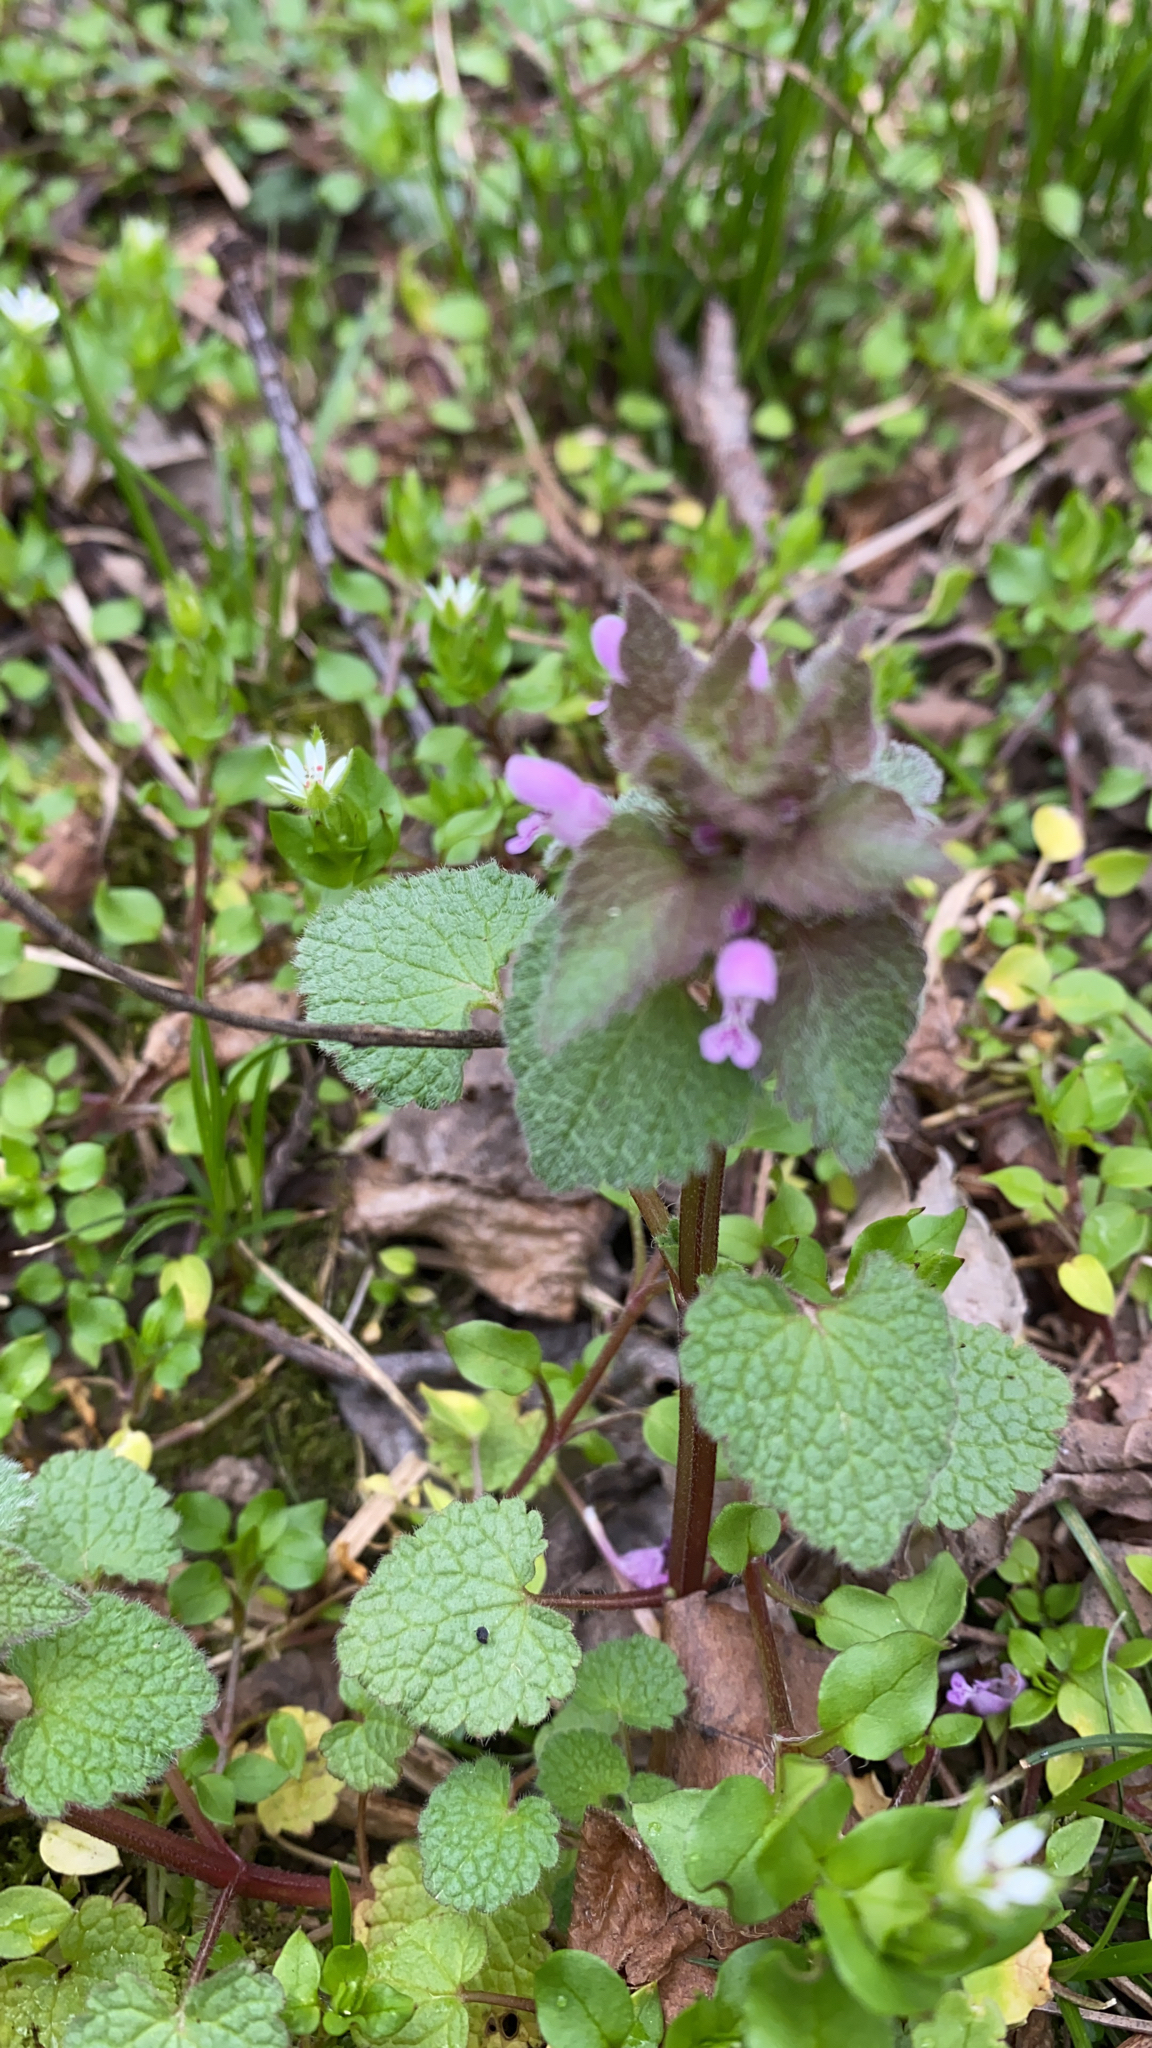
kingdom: Plantae
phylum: Tracheophyta
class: Magnoliopsida
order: Lamiales
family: Lamiaceae
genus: Lamium
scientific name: Lamium purpureum
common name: Red dead-nettle
